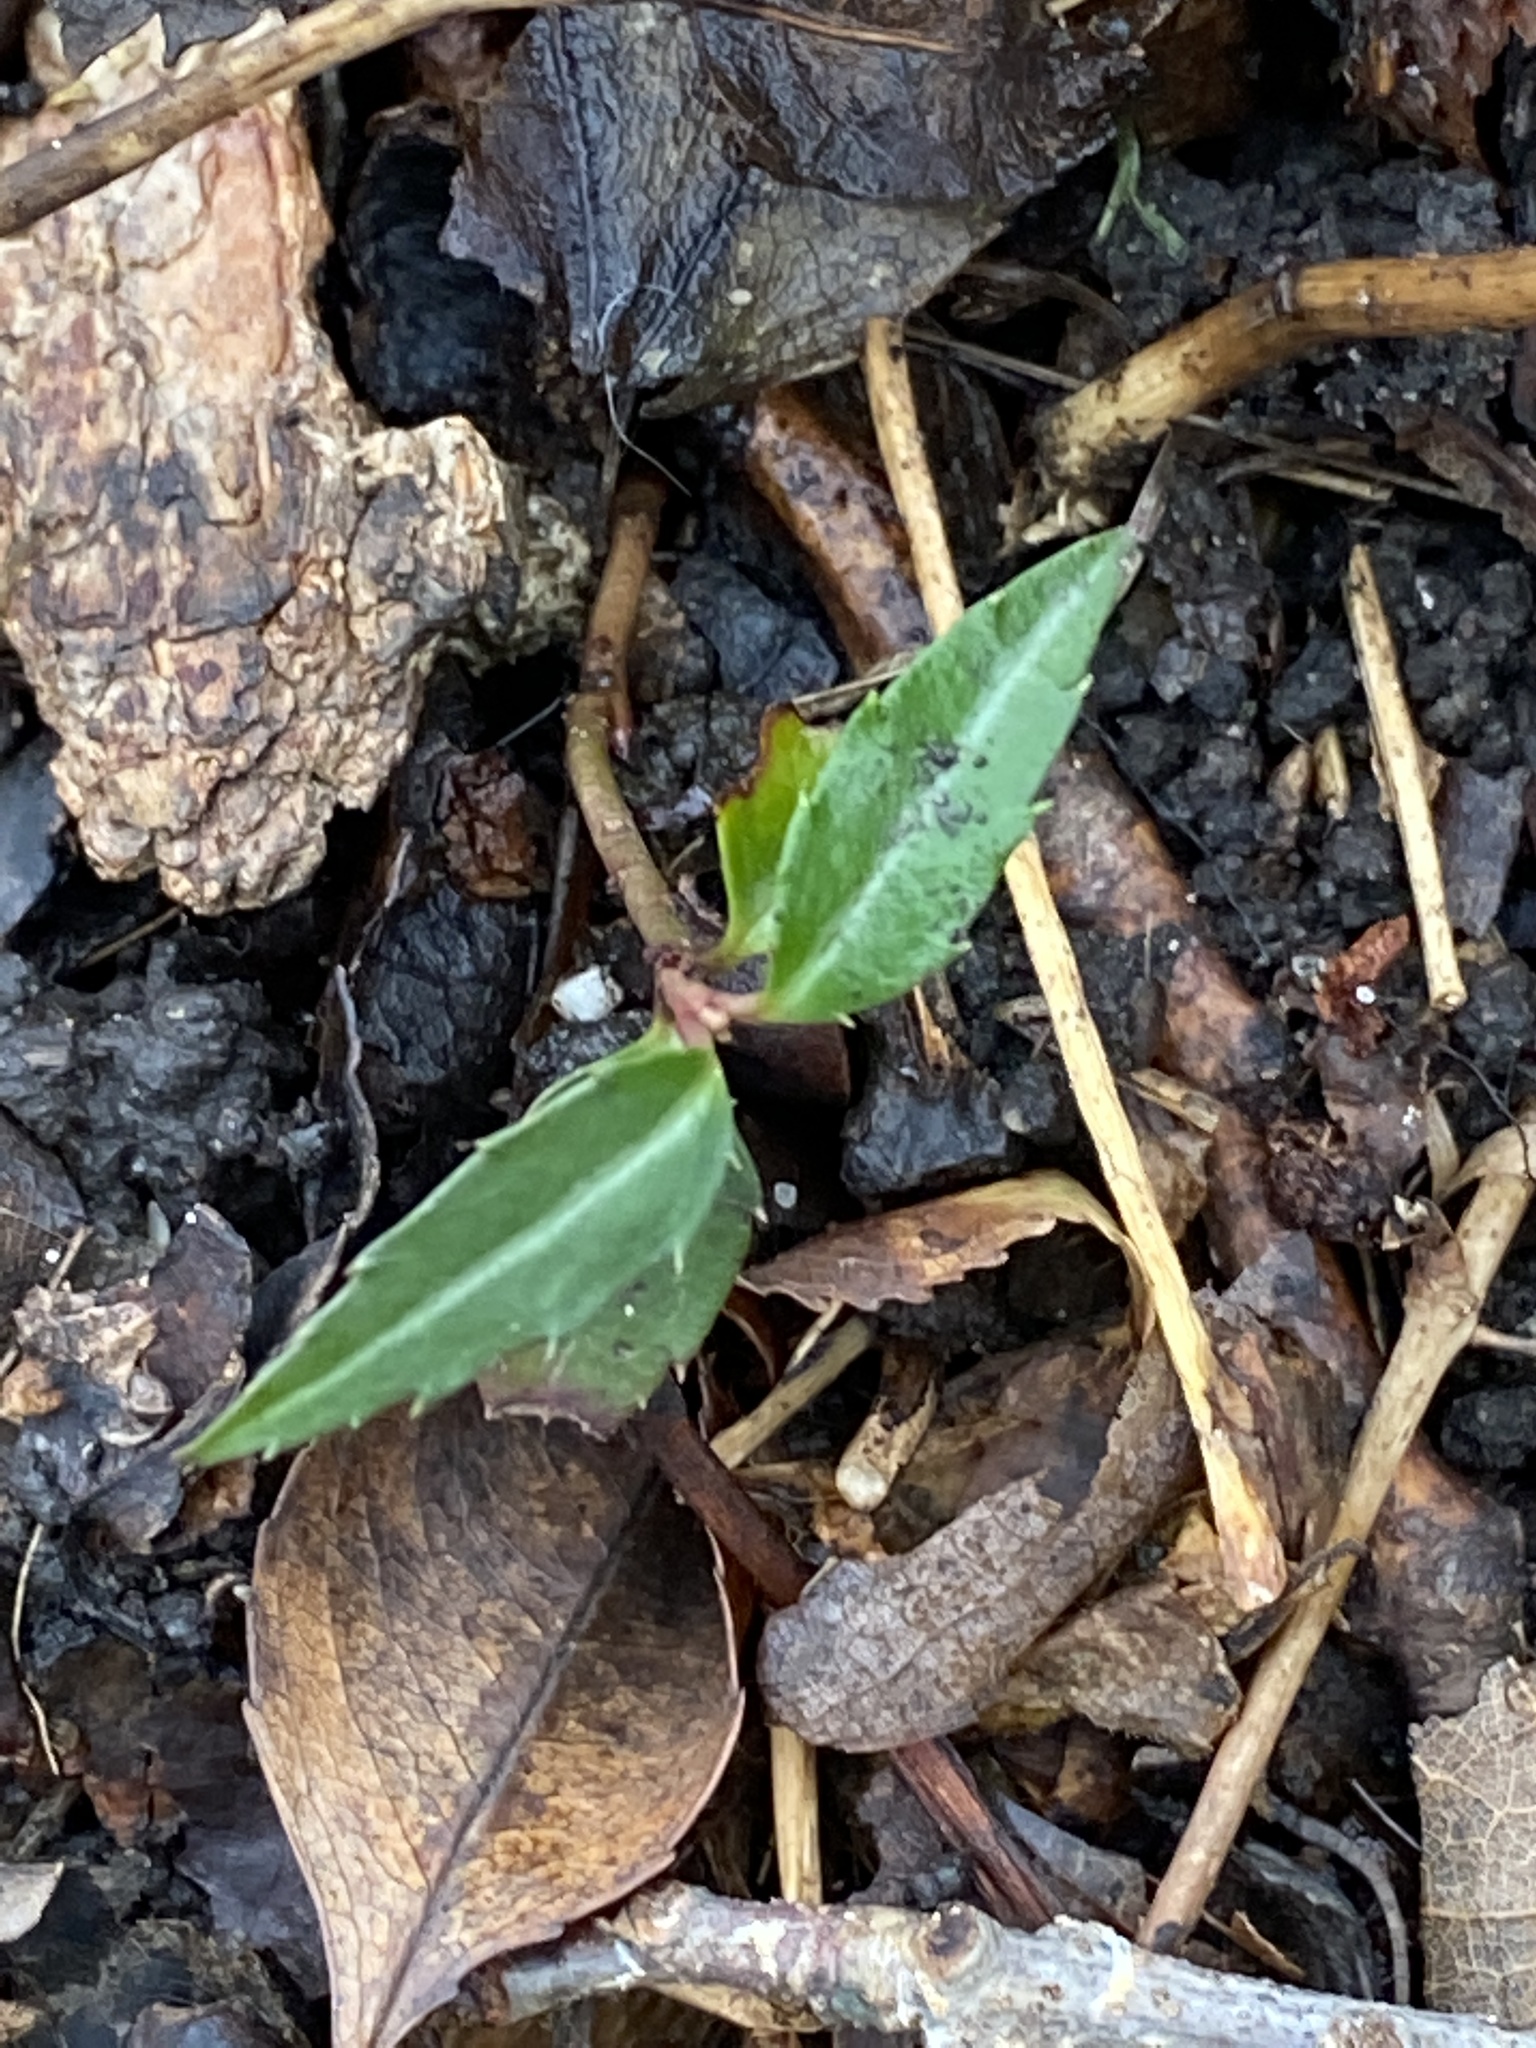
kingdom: Plantae
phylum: Tracheophyta
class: Magnoliopsida
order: Ericales
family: Ericaceae
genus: Chimaphila
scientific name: Chimaphila maculata
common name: Spotted pipsissewa
